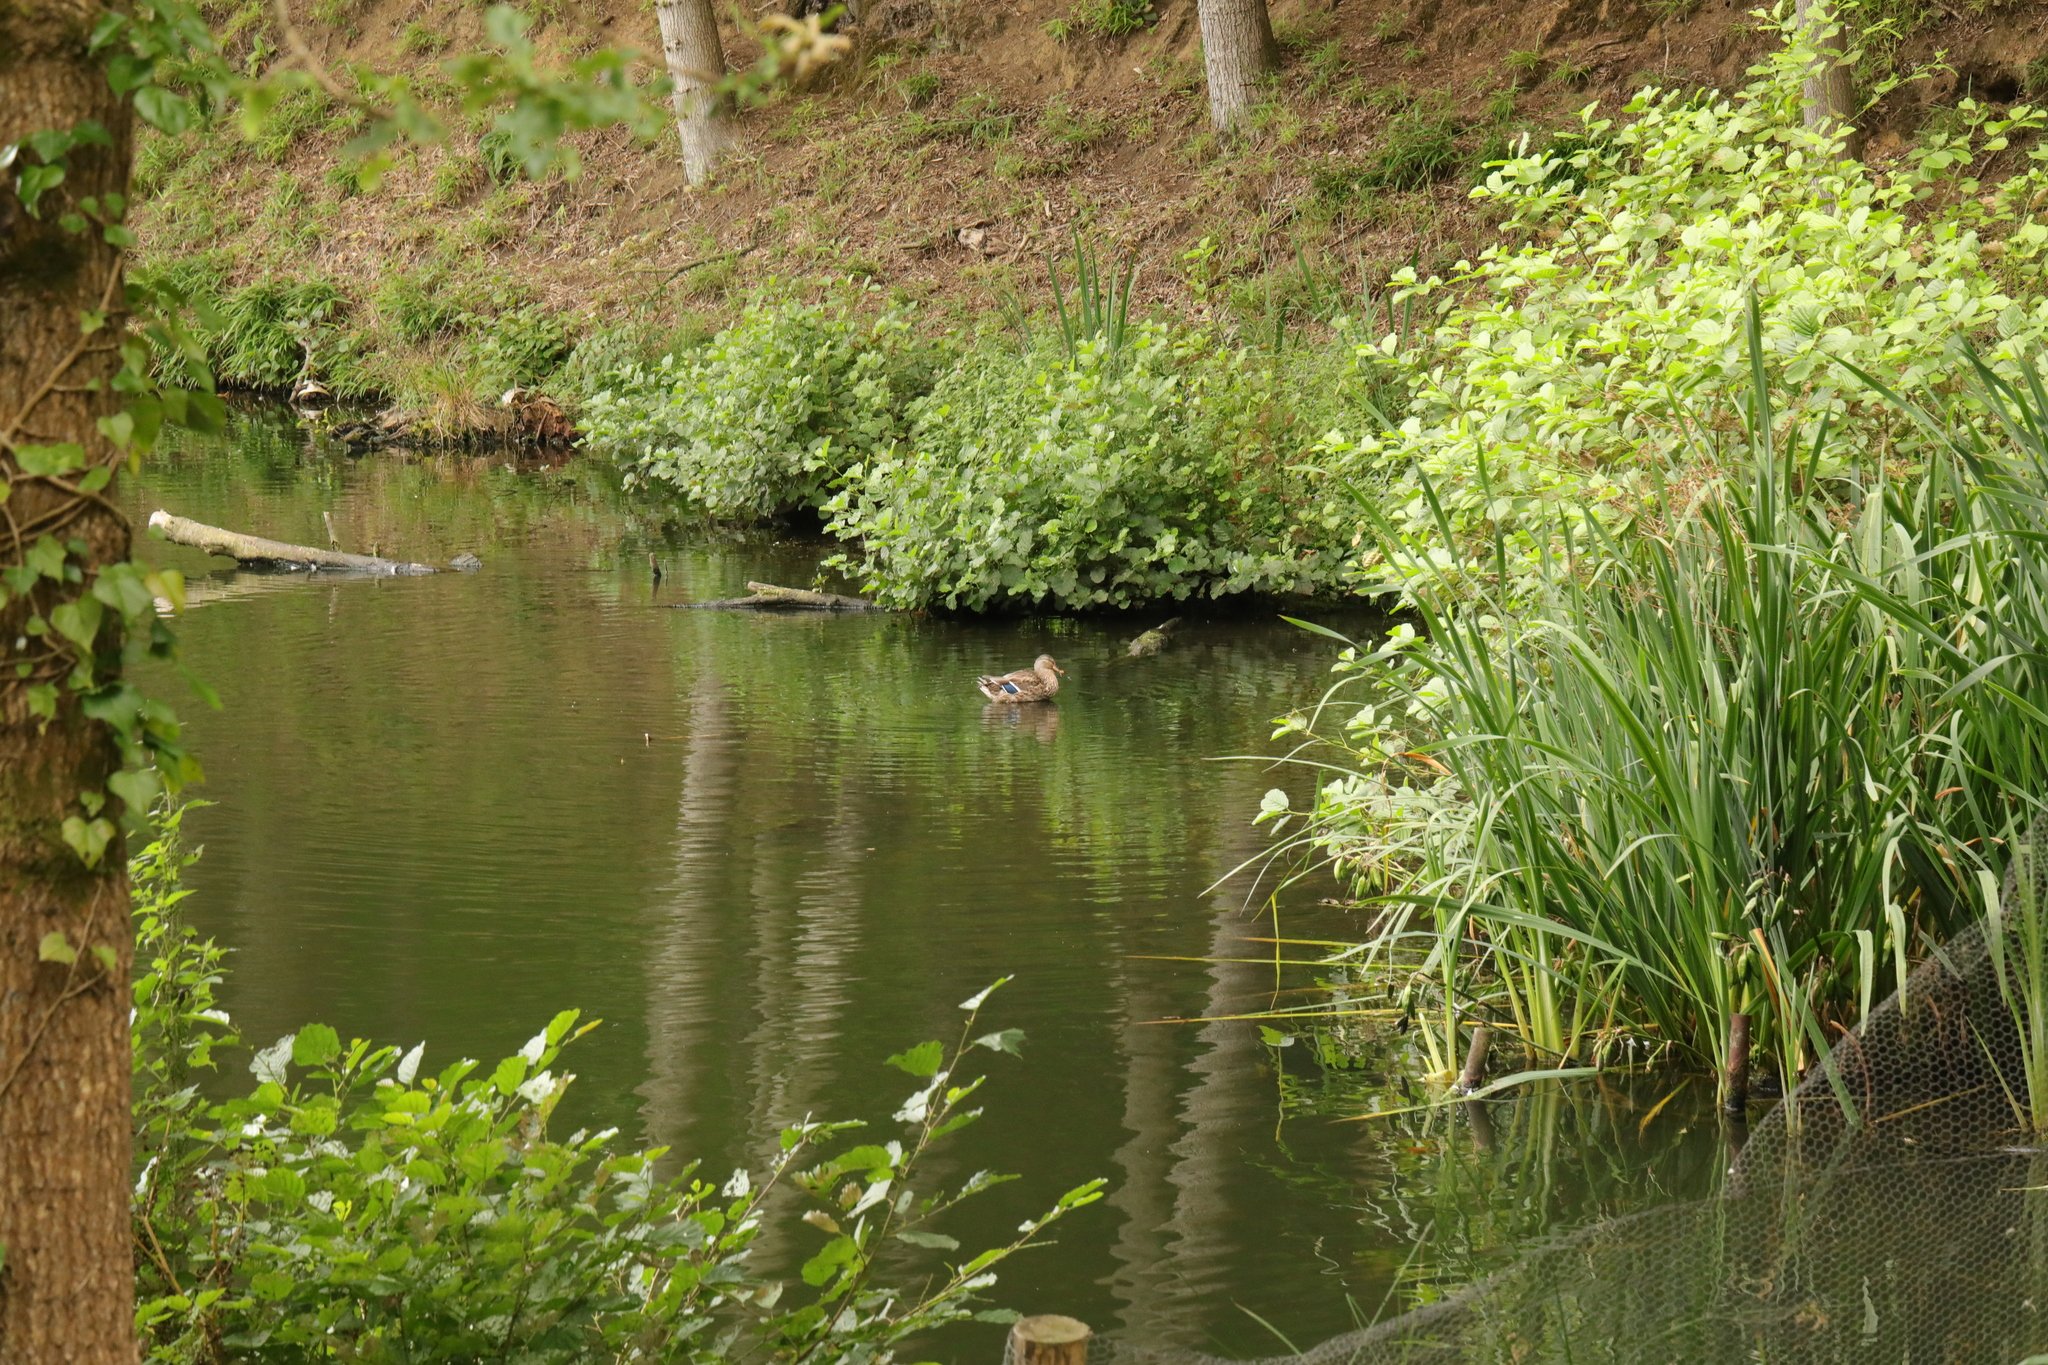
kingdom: Animalia
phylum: Chordata
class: Aves
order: Anseriformes
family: Anatidae
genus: Anas
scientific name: Anas platyrhynchos
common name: Mallard
